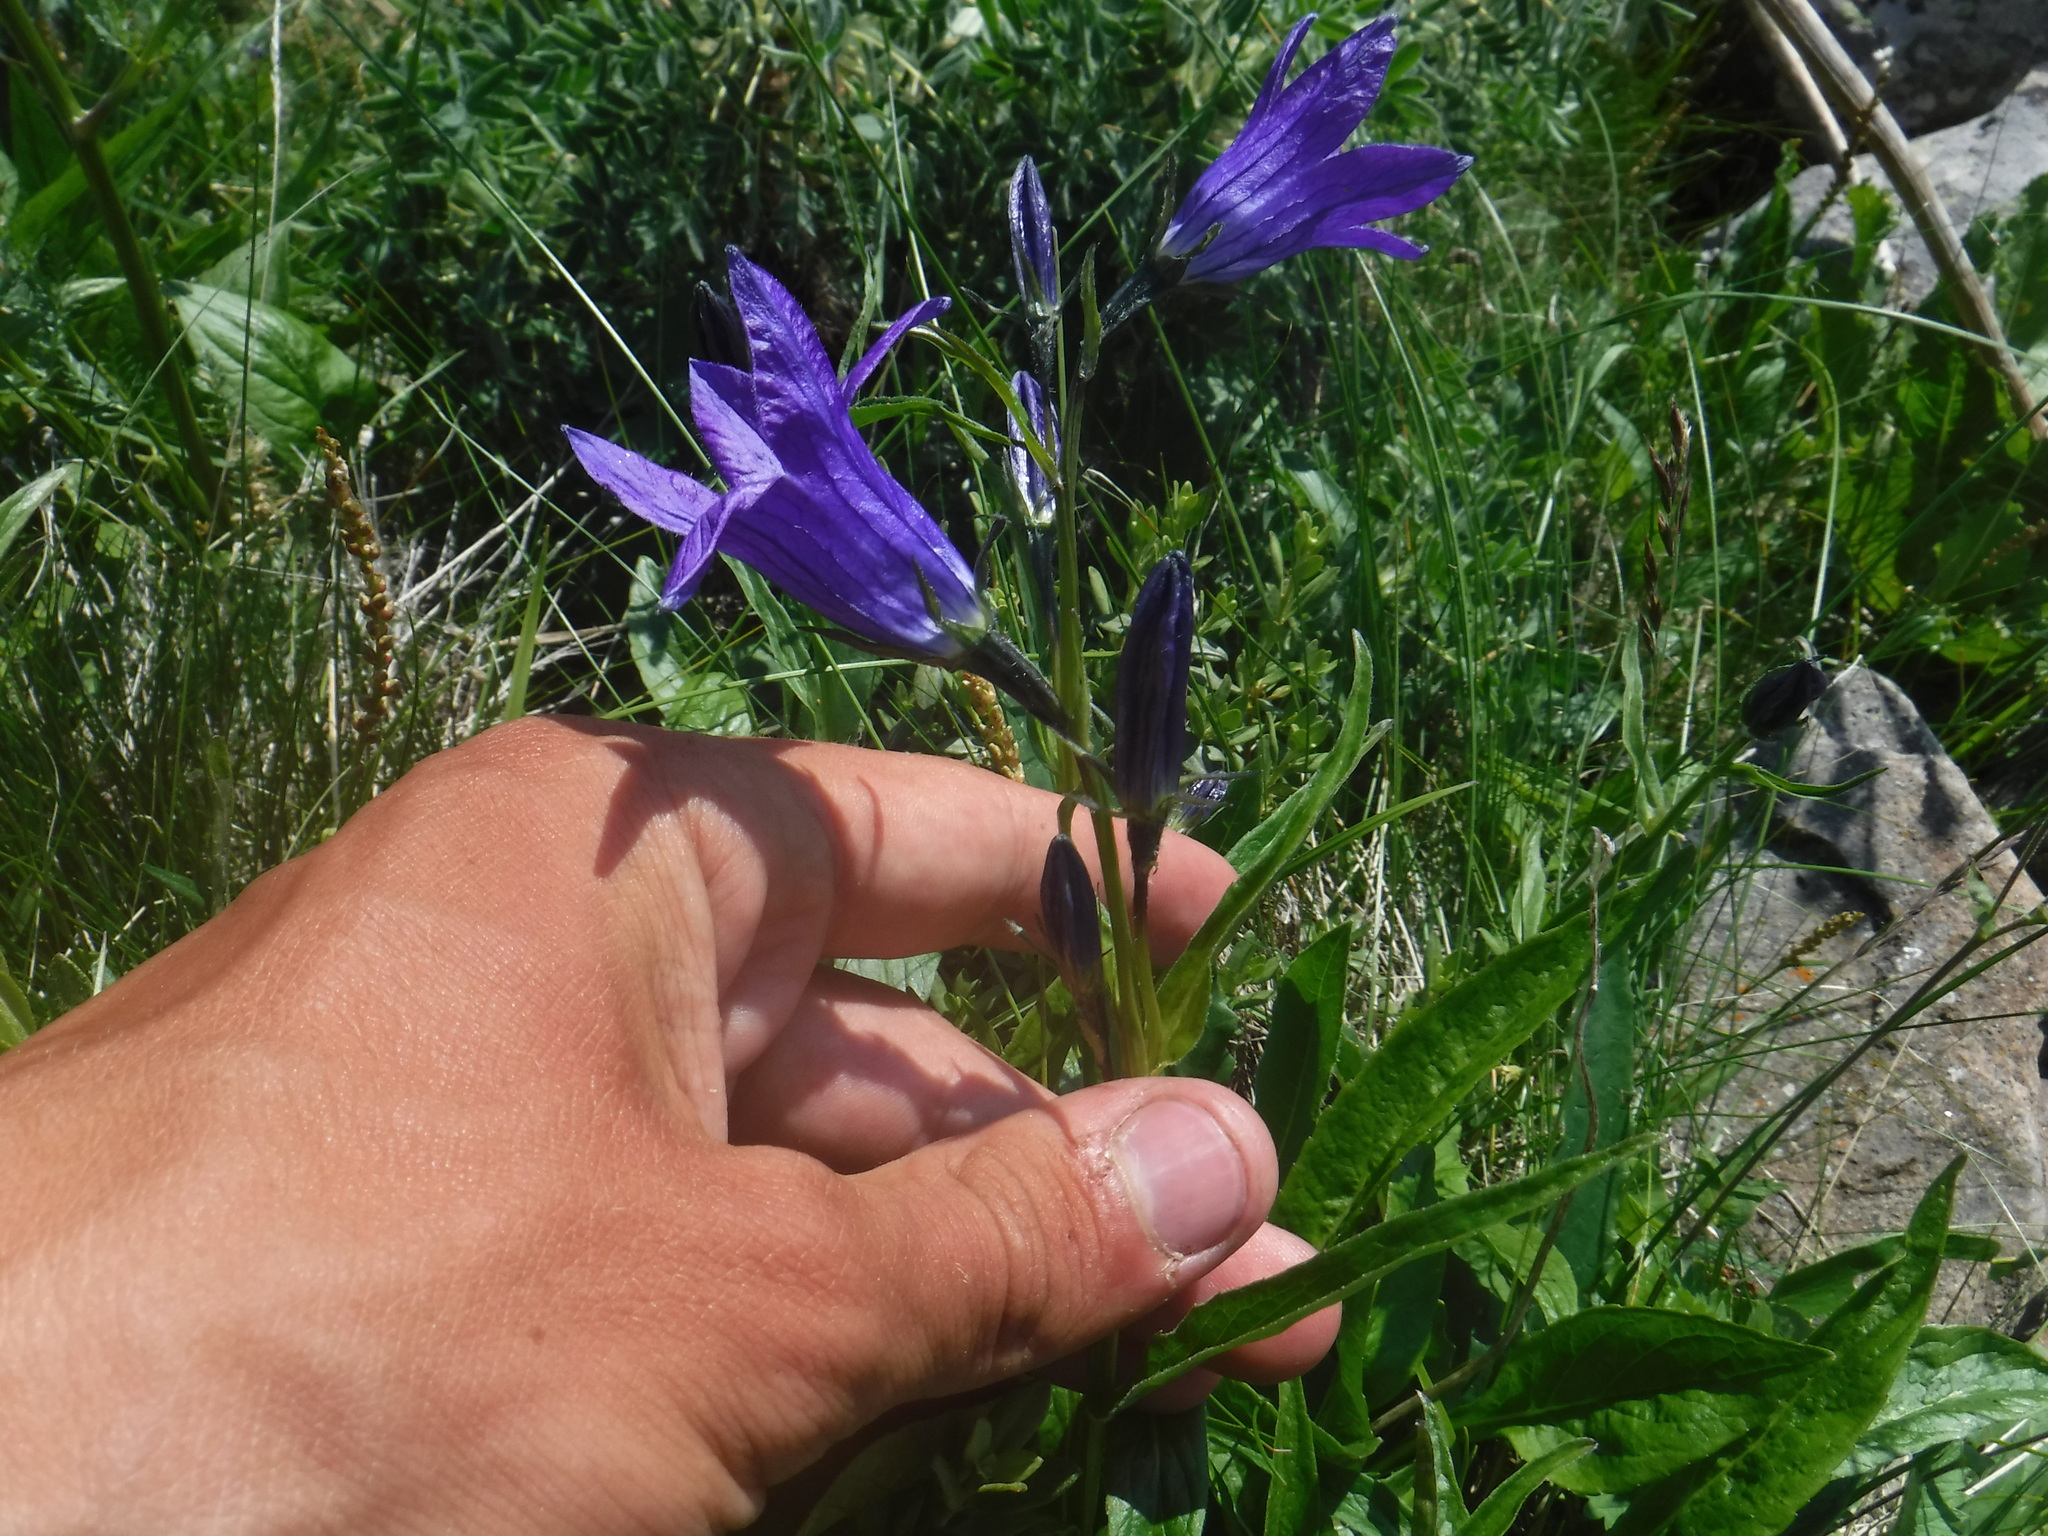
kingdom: Plantae
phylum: Tracheophyta
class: Magnoliopsida
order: Asterales
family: Campanulaceae
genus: Campanula
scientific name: Campanula stevenii
